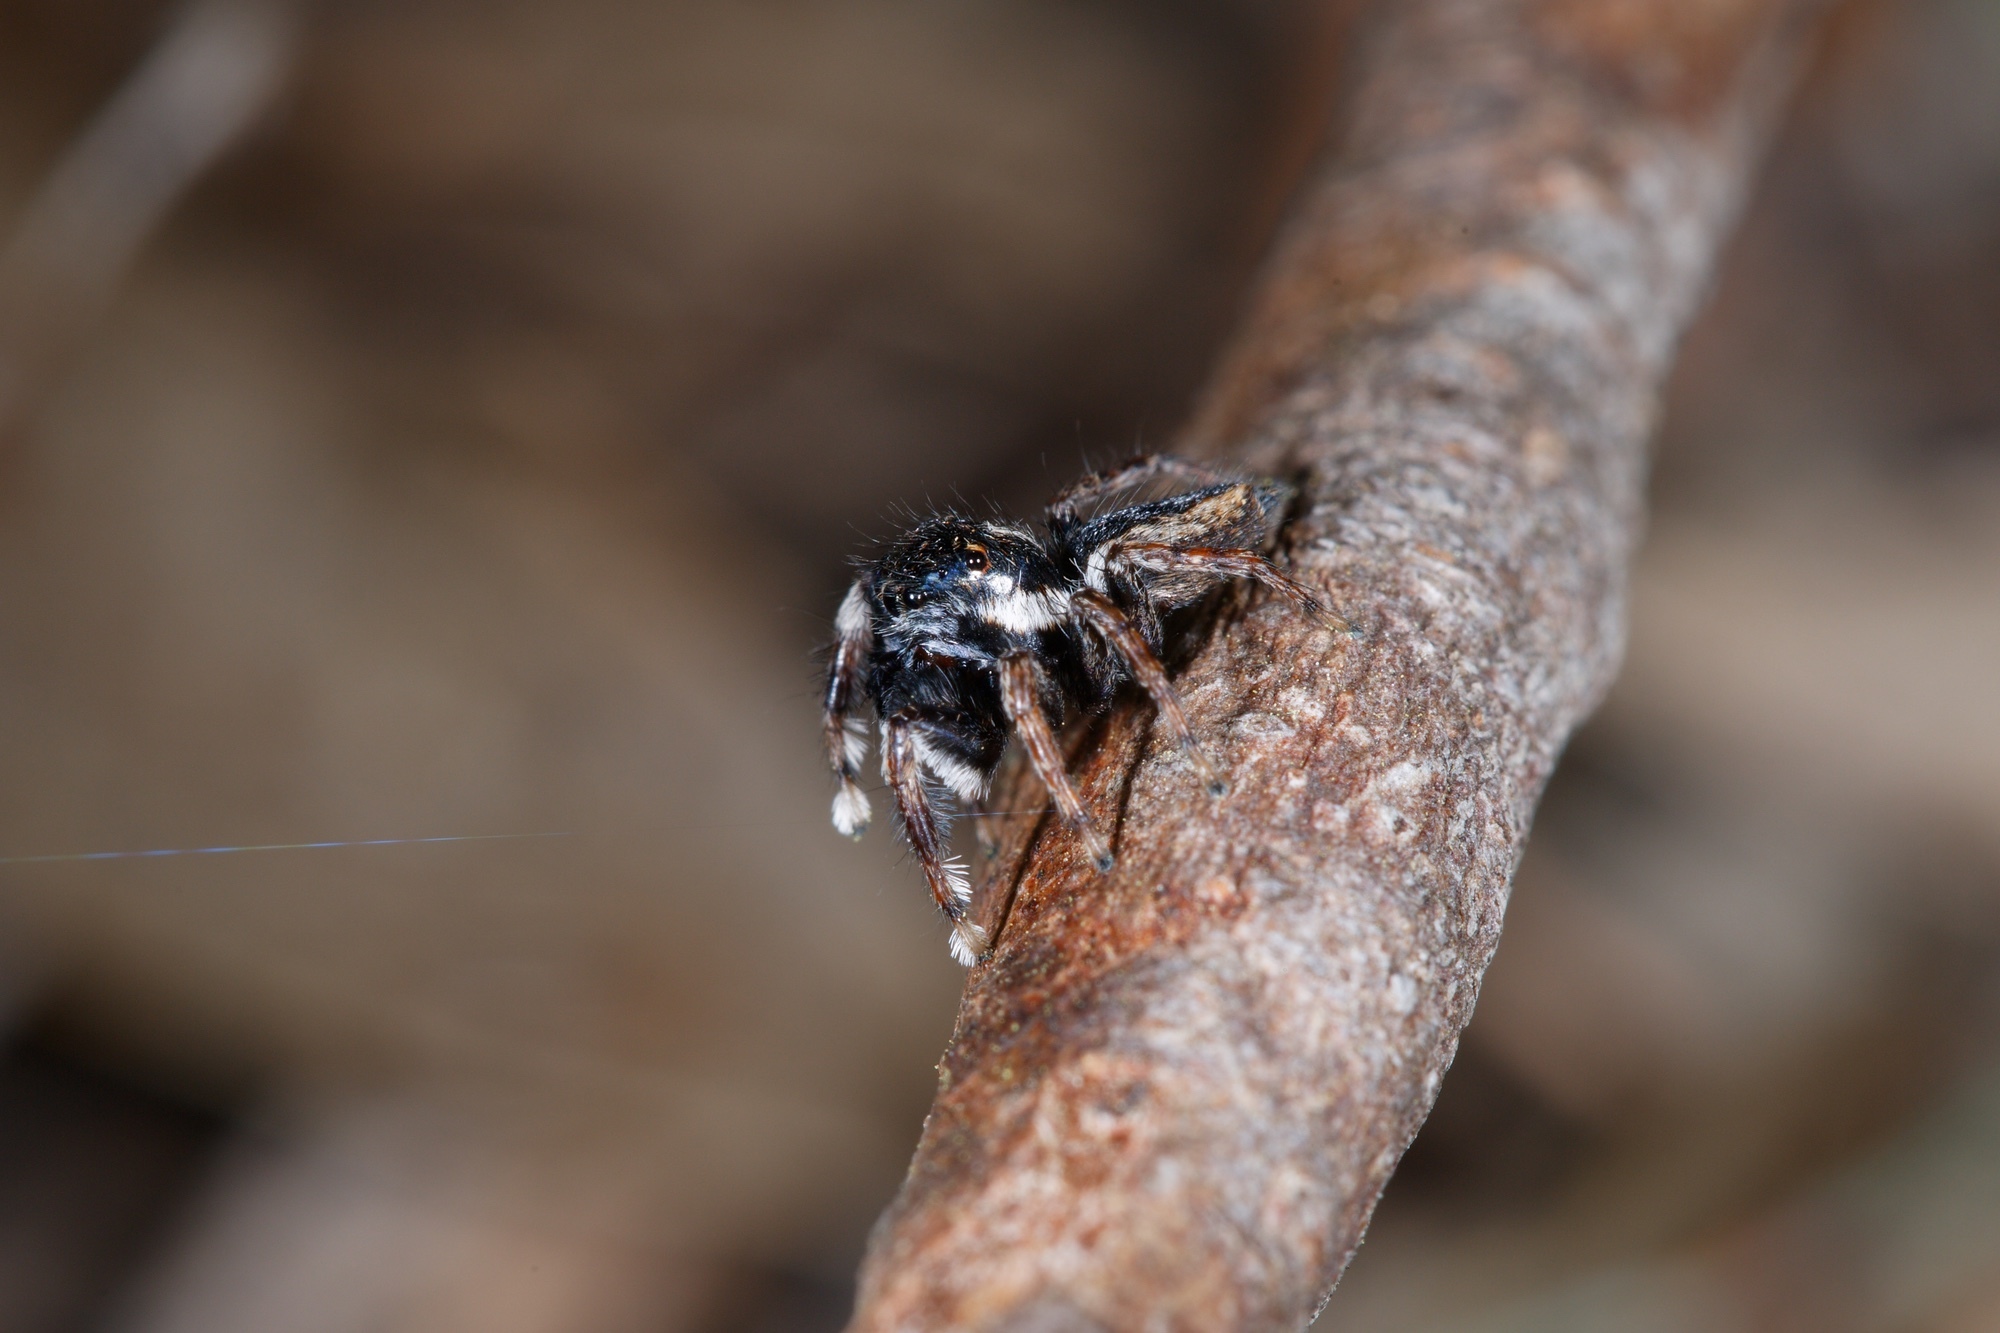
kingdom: Animalia
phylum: Arthropoda
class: Arachnida
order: Araneae
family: Salticidae
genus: Jotus
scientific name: Jotus frosti
